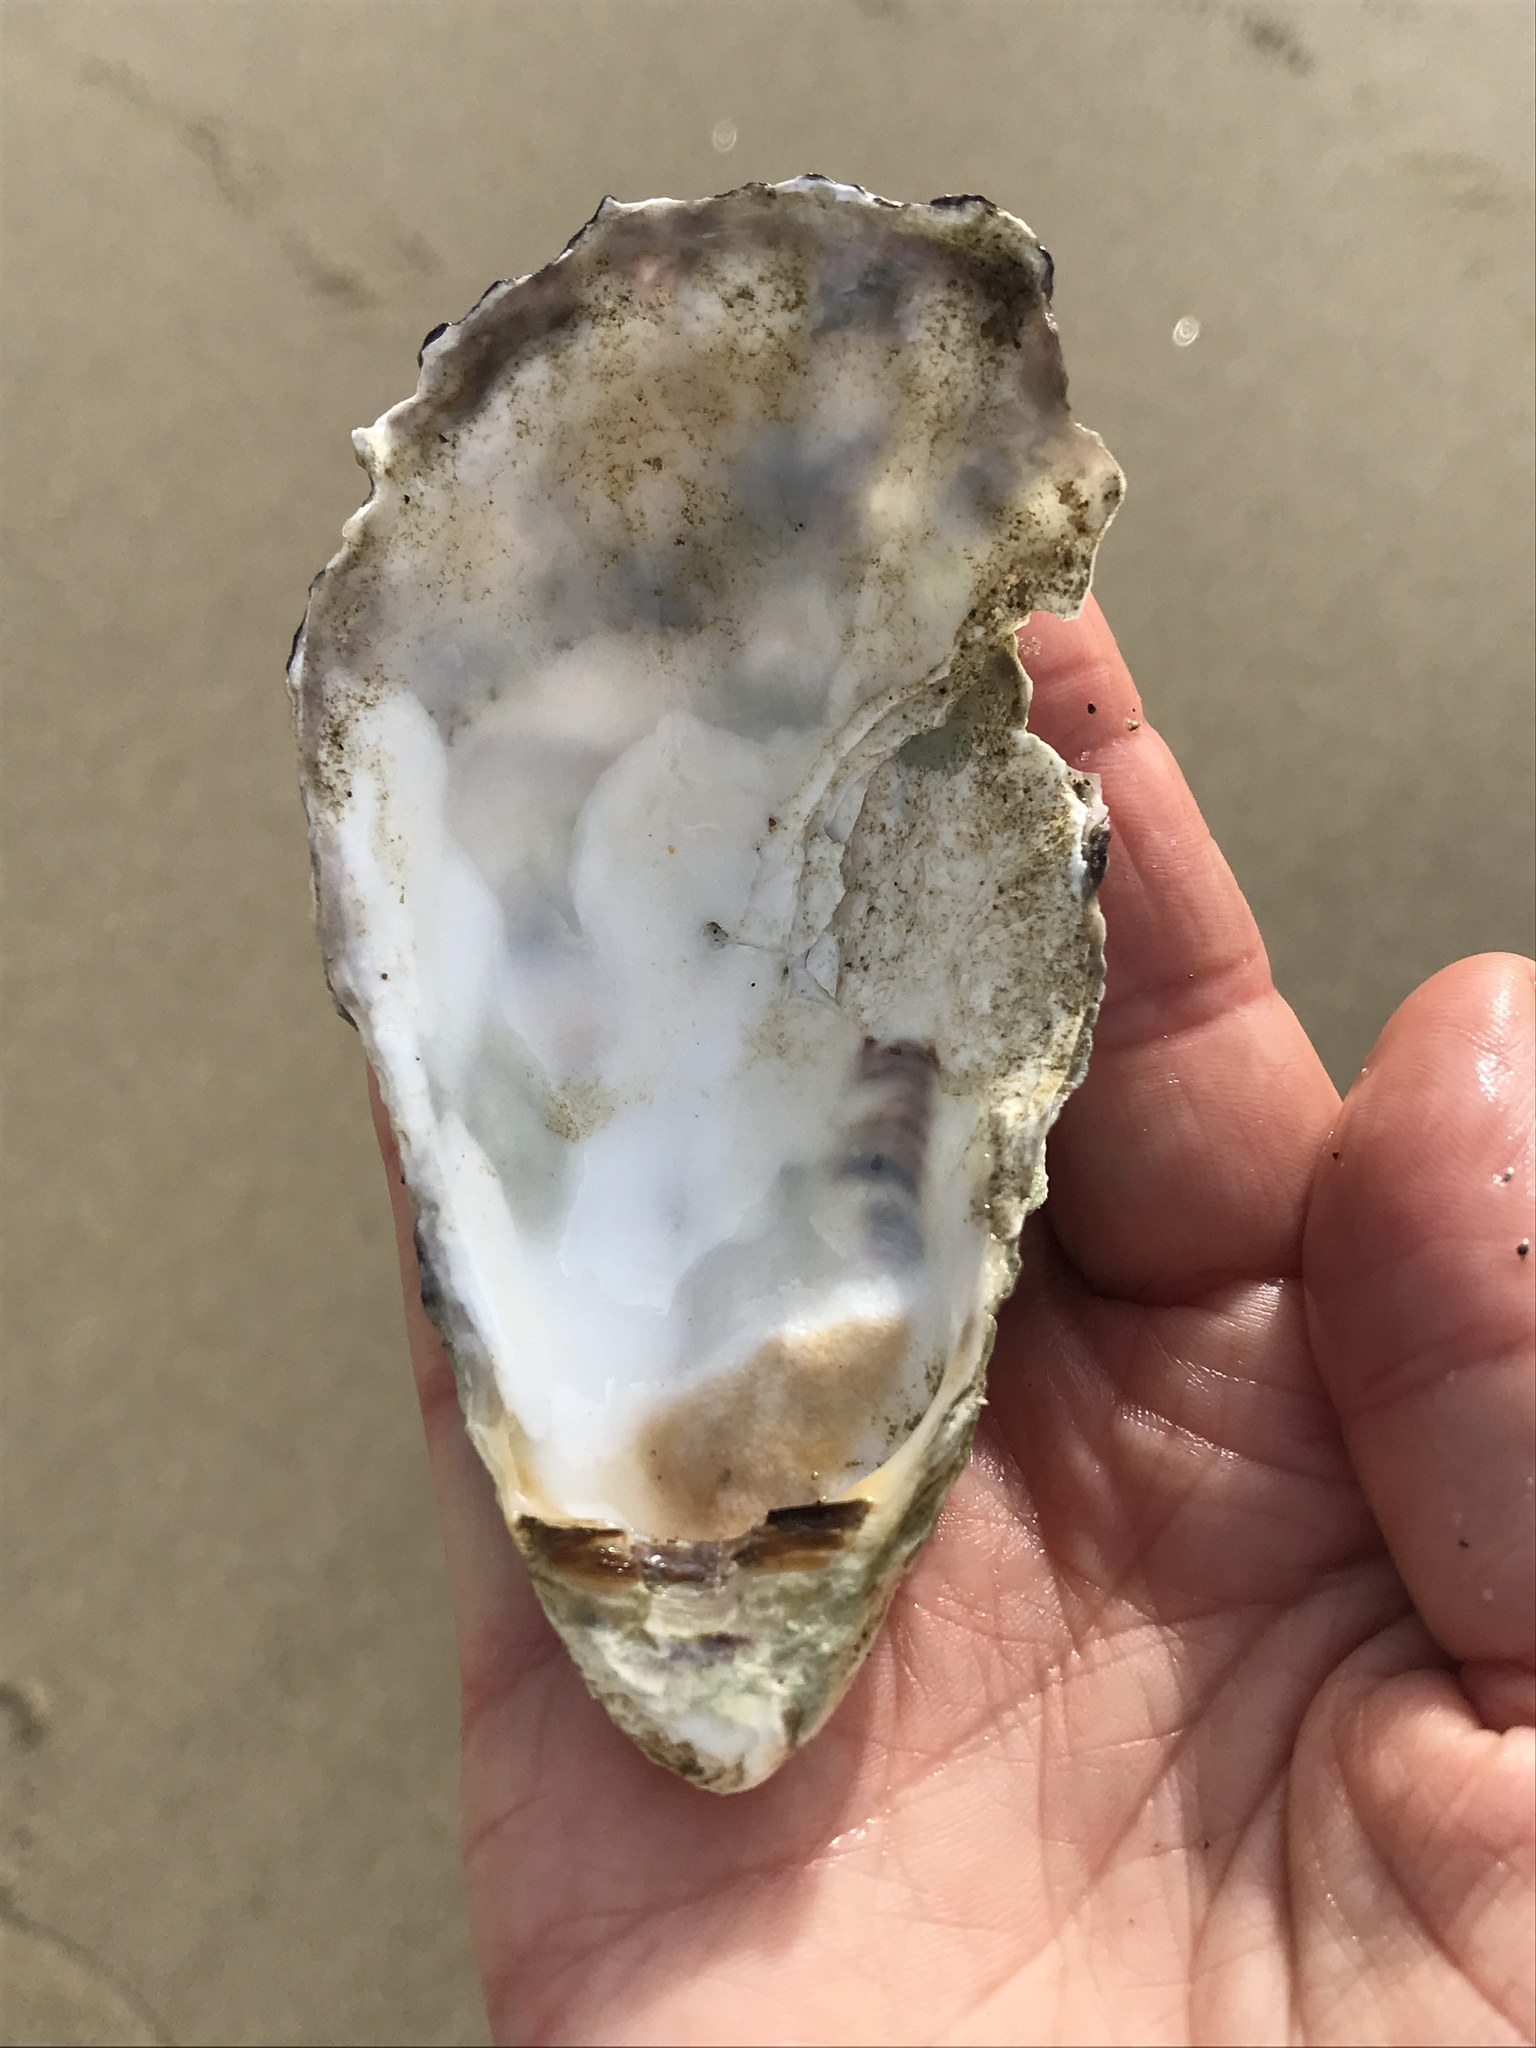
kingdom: Animalia
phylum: Mollusca
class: Bivalvia
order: Ostreida
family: Ostreidae
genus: Magallana
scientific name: Magallana gigas
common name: Pacific oyster
